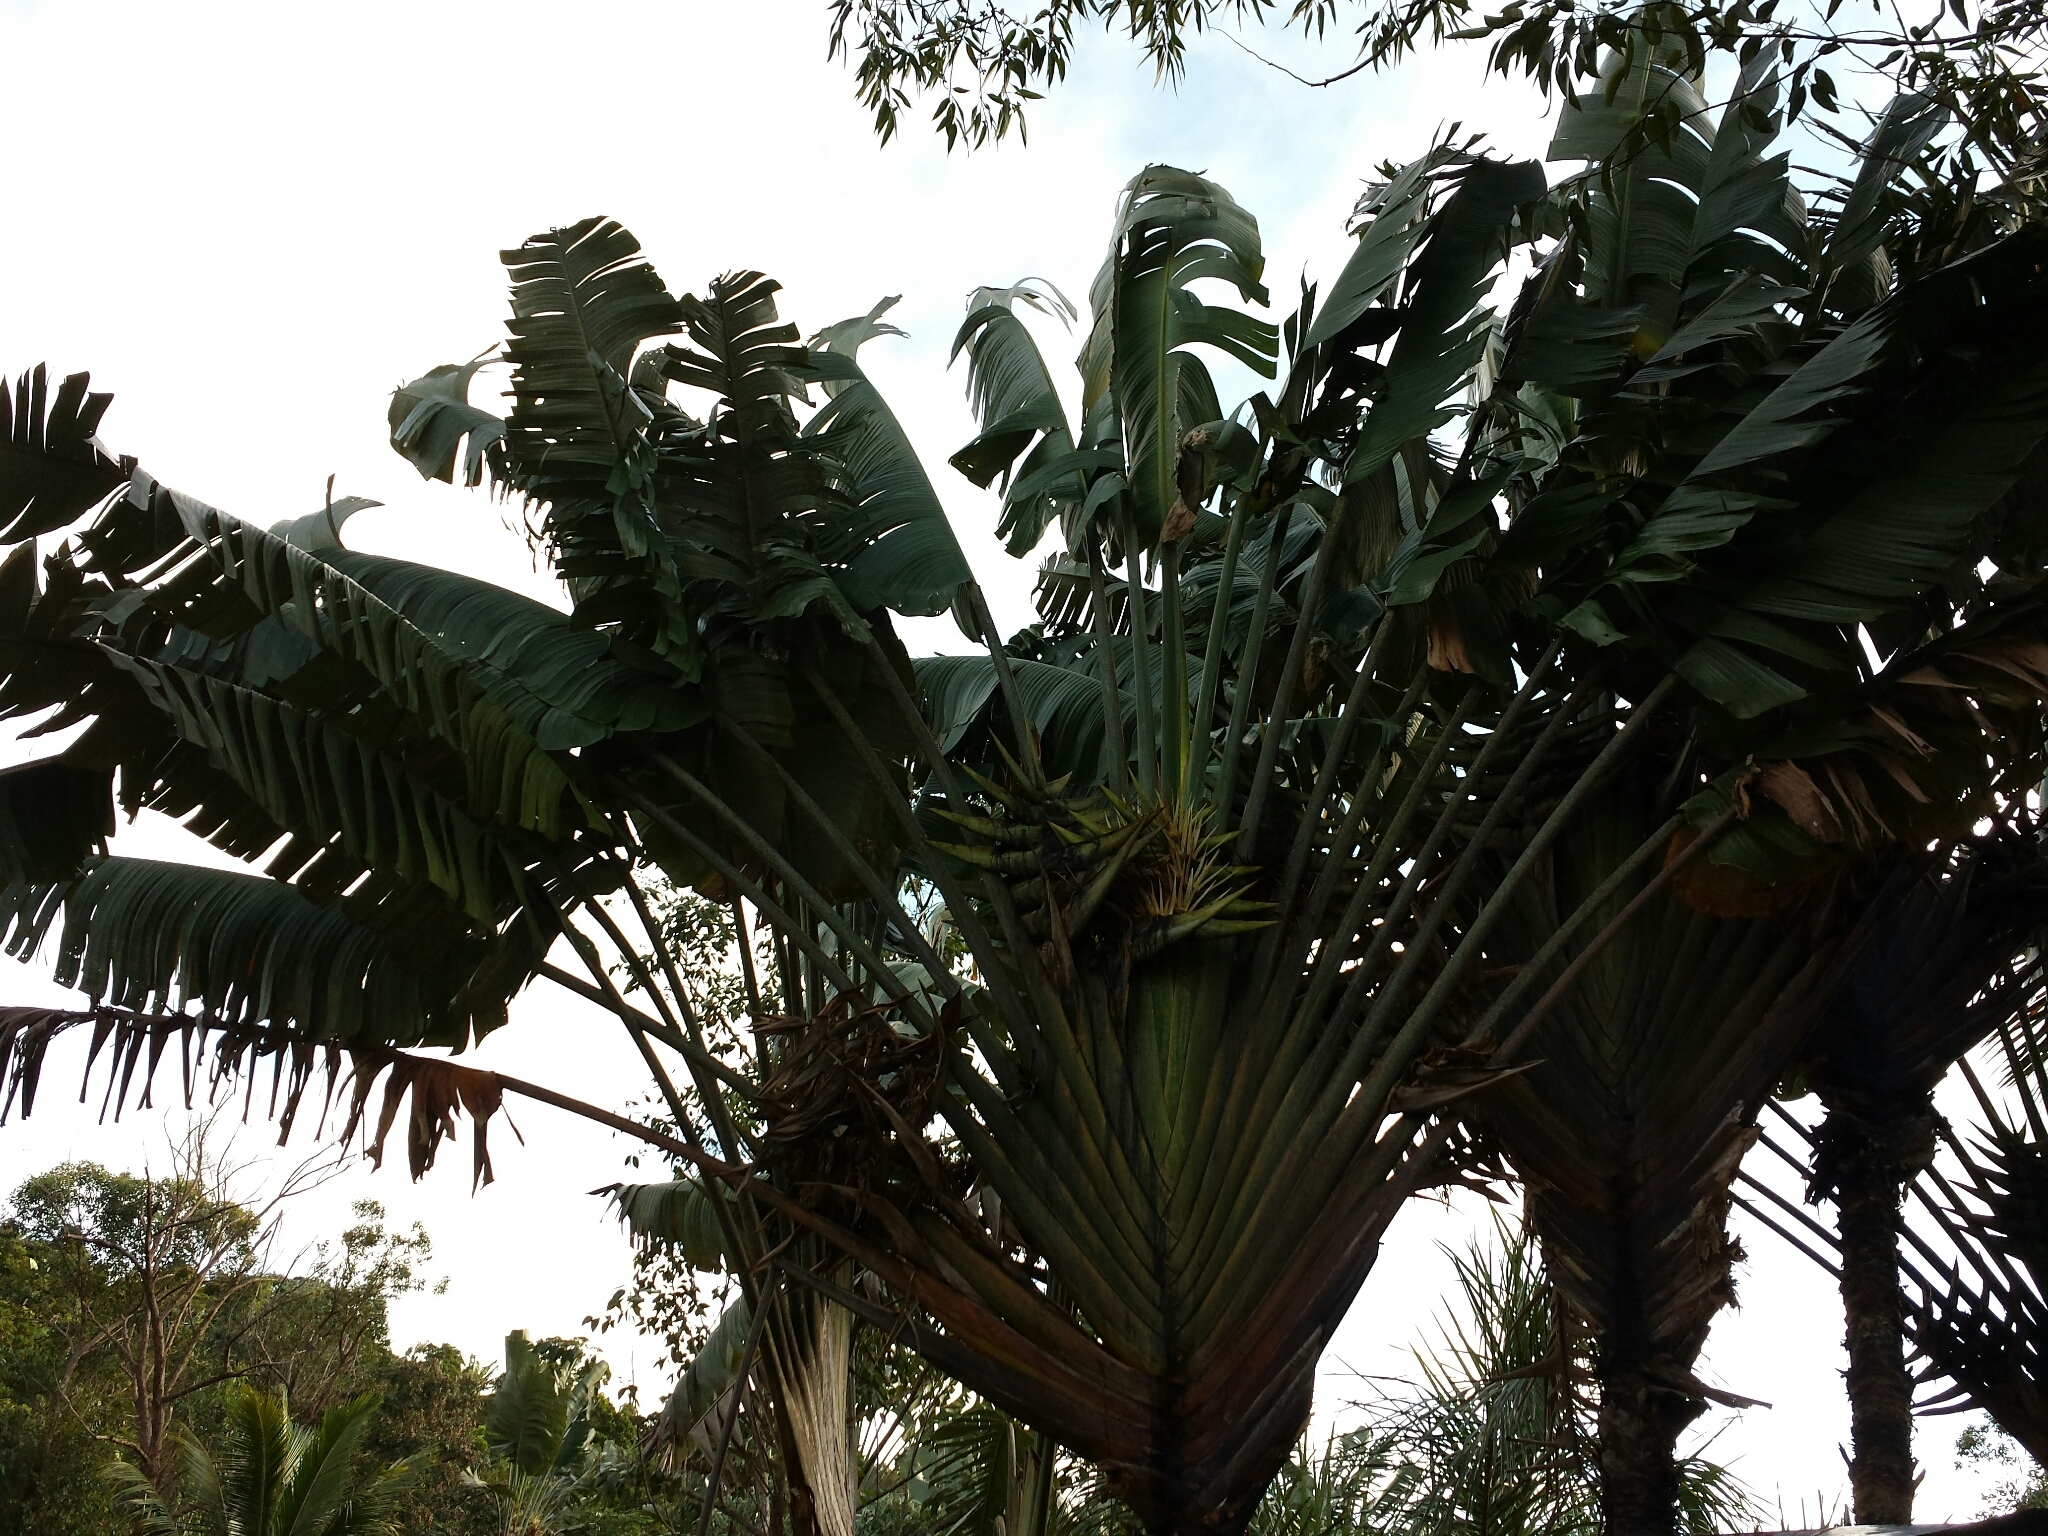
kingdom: Plantae
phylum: Tracheophyta
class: Liliopsida
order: Zingiberales
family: Strelitziaceae
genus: Ravenala
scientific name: Ravenala madagascariensis
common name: Traveler's-palm
